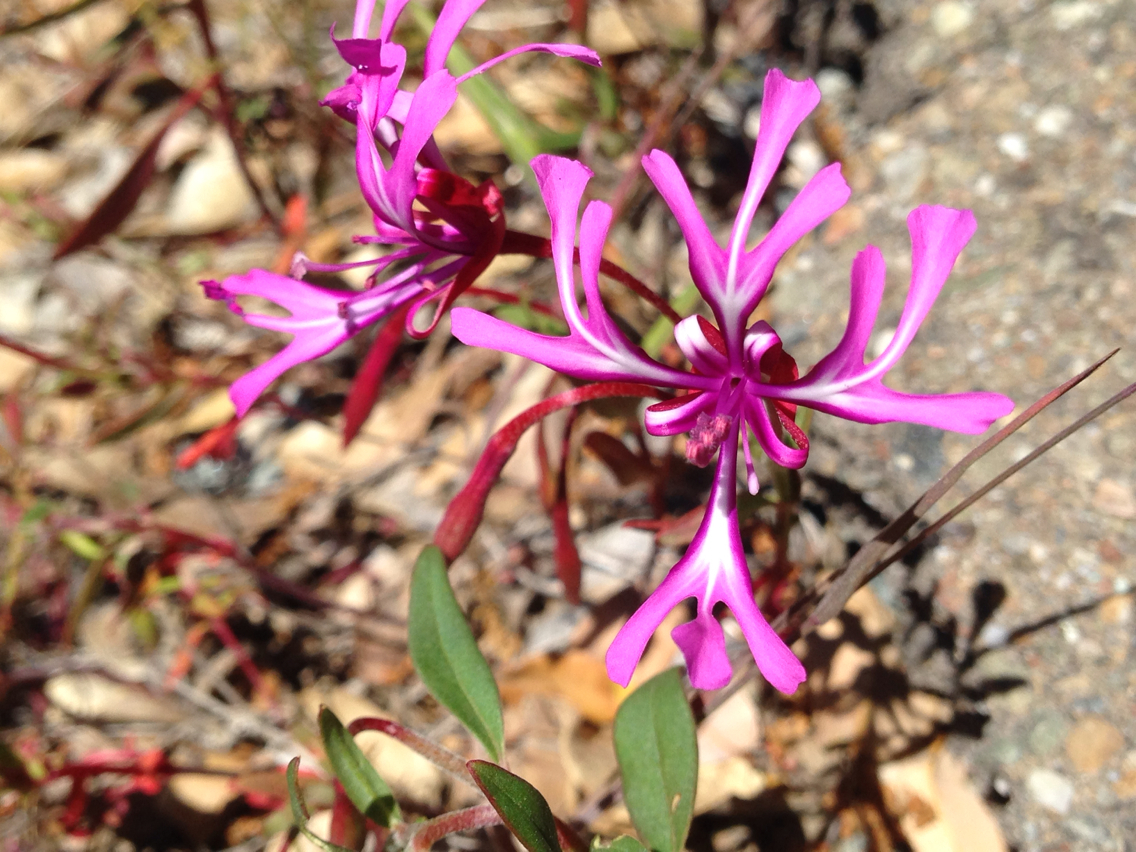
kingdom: Plantae
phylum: Tracheophyta
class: Magnoliopsida
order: Myrtales
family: Onagraceae
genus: Clarkia
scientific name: Clarkia concinna
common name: Red-ribbons
